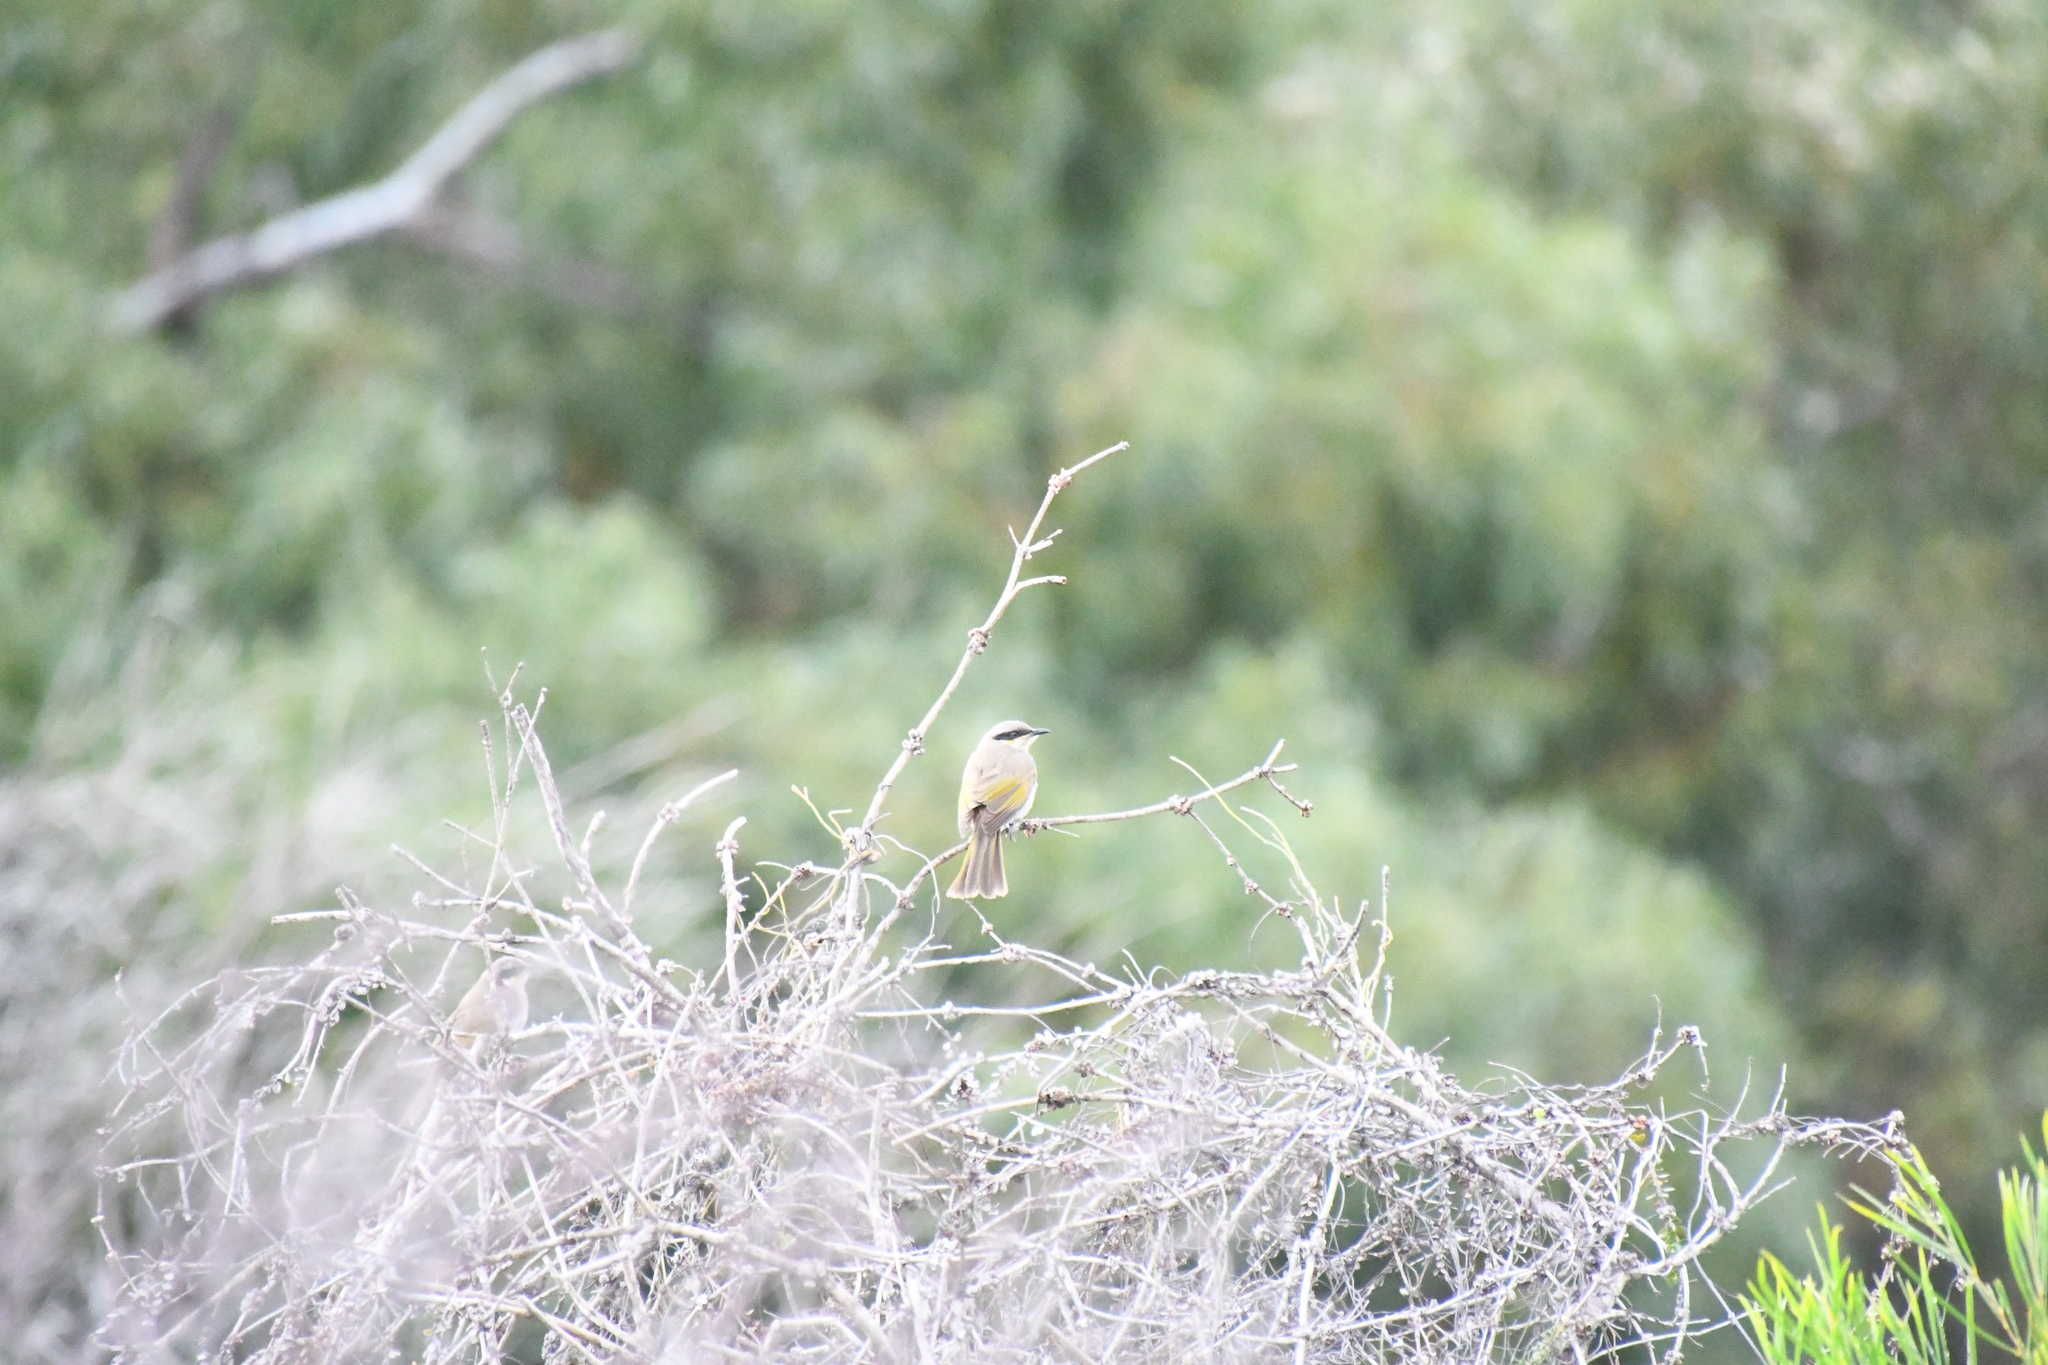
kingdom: Animalia
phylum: Chordata
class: Aves
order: Passeriformes
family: Meliphagidae
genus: Gavicalis
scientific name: Gavicalis virescens
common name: Singing honeyeater
